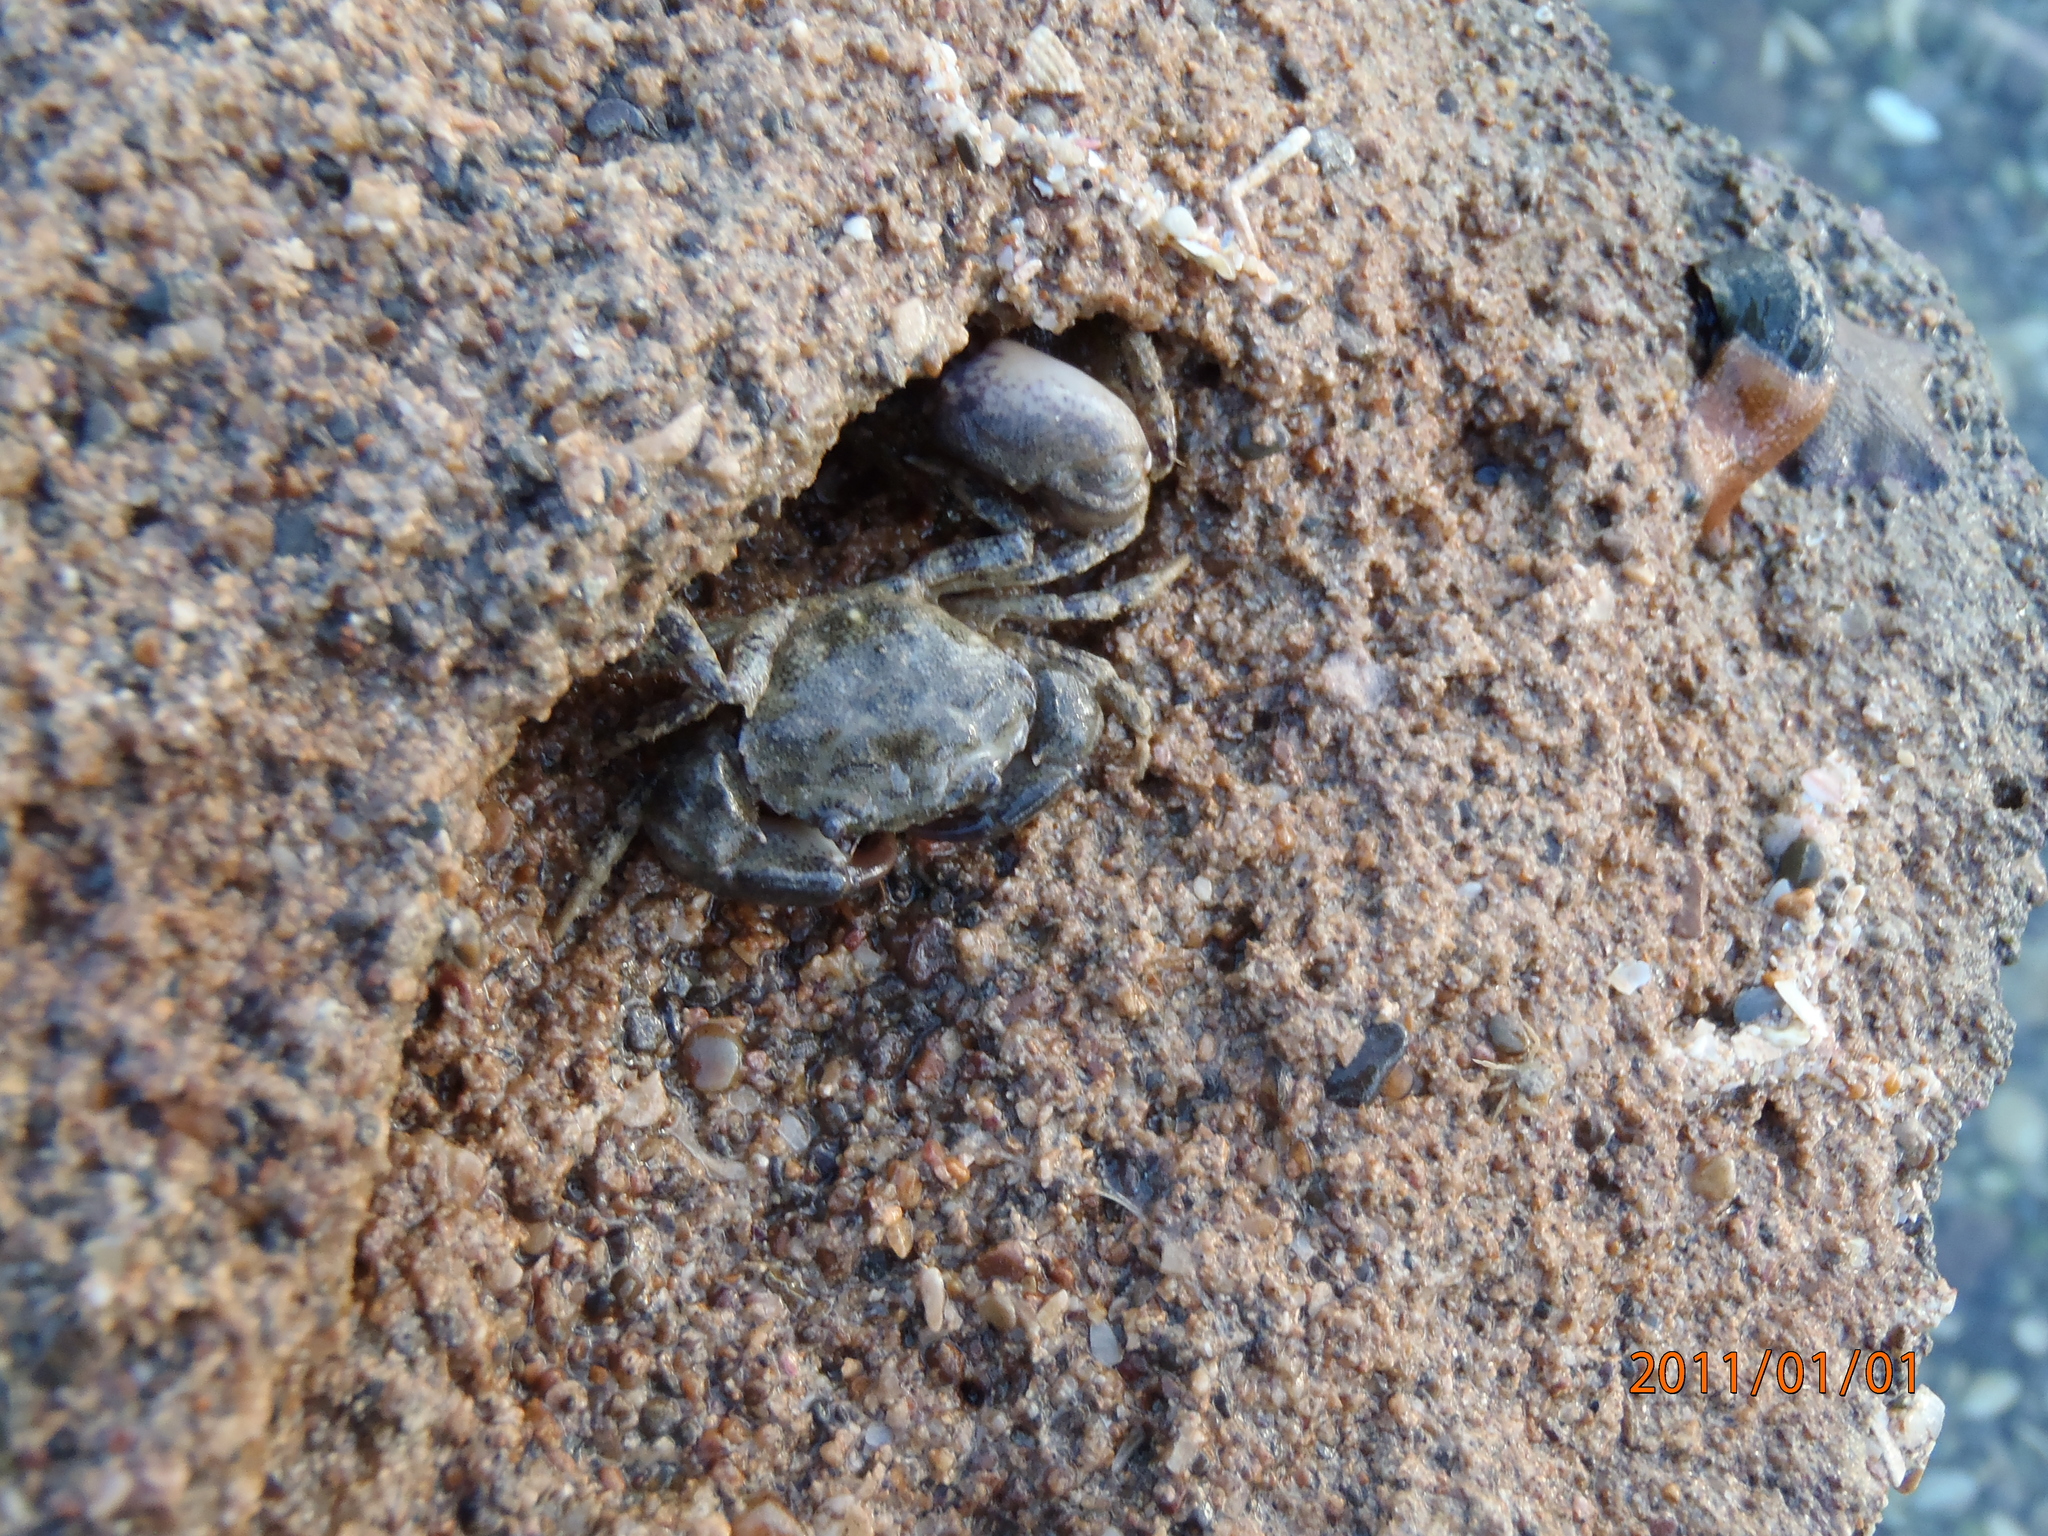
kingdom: Animalia
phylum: Arthropoda
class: Malacostraca
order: Decapoda
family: Pilumnidae
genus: Pilumnopeus
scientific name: Pilumnopeus serratifrons
